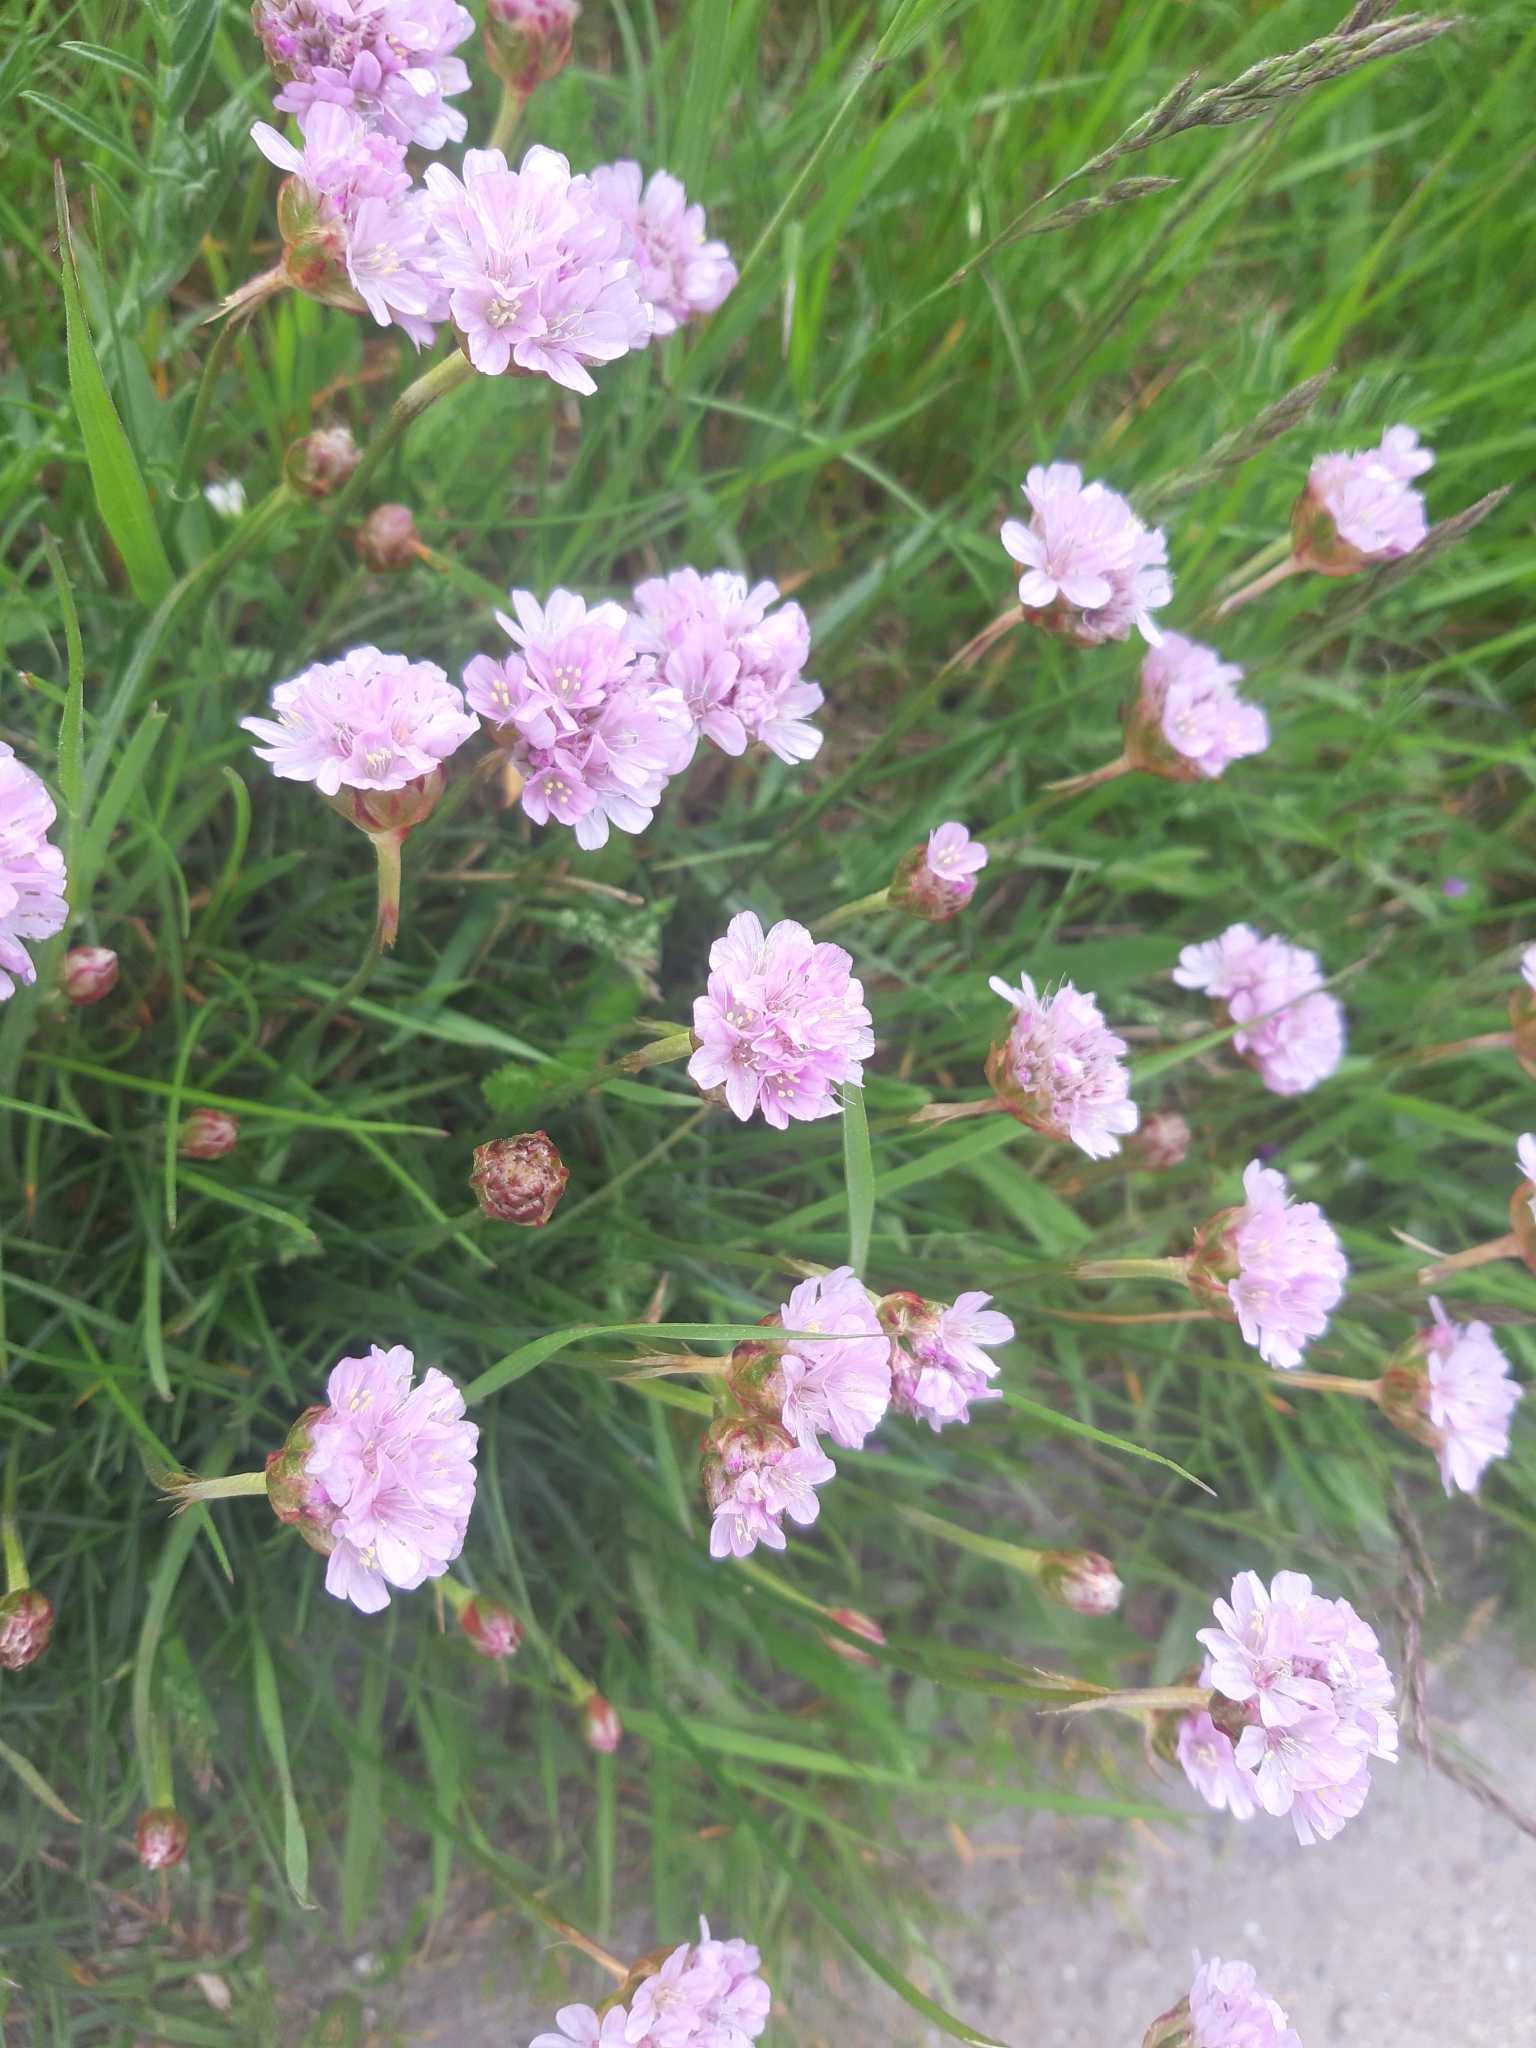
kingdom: Plantae
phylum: Tracheophyta
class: Magnoliopsida
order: Caryophyllales
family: Plumbaginaceae
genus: Armeria
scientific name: Armeria maritima
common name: Thrift
